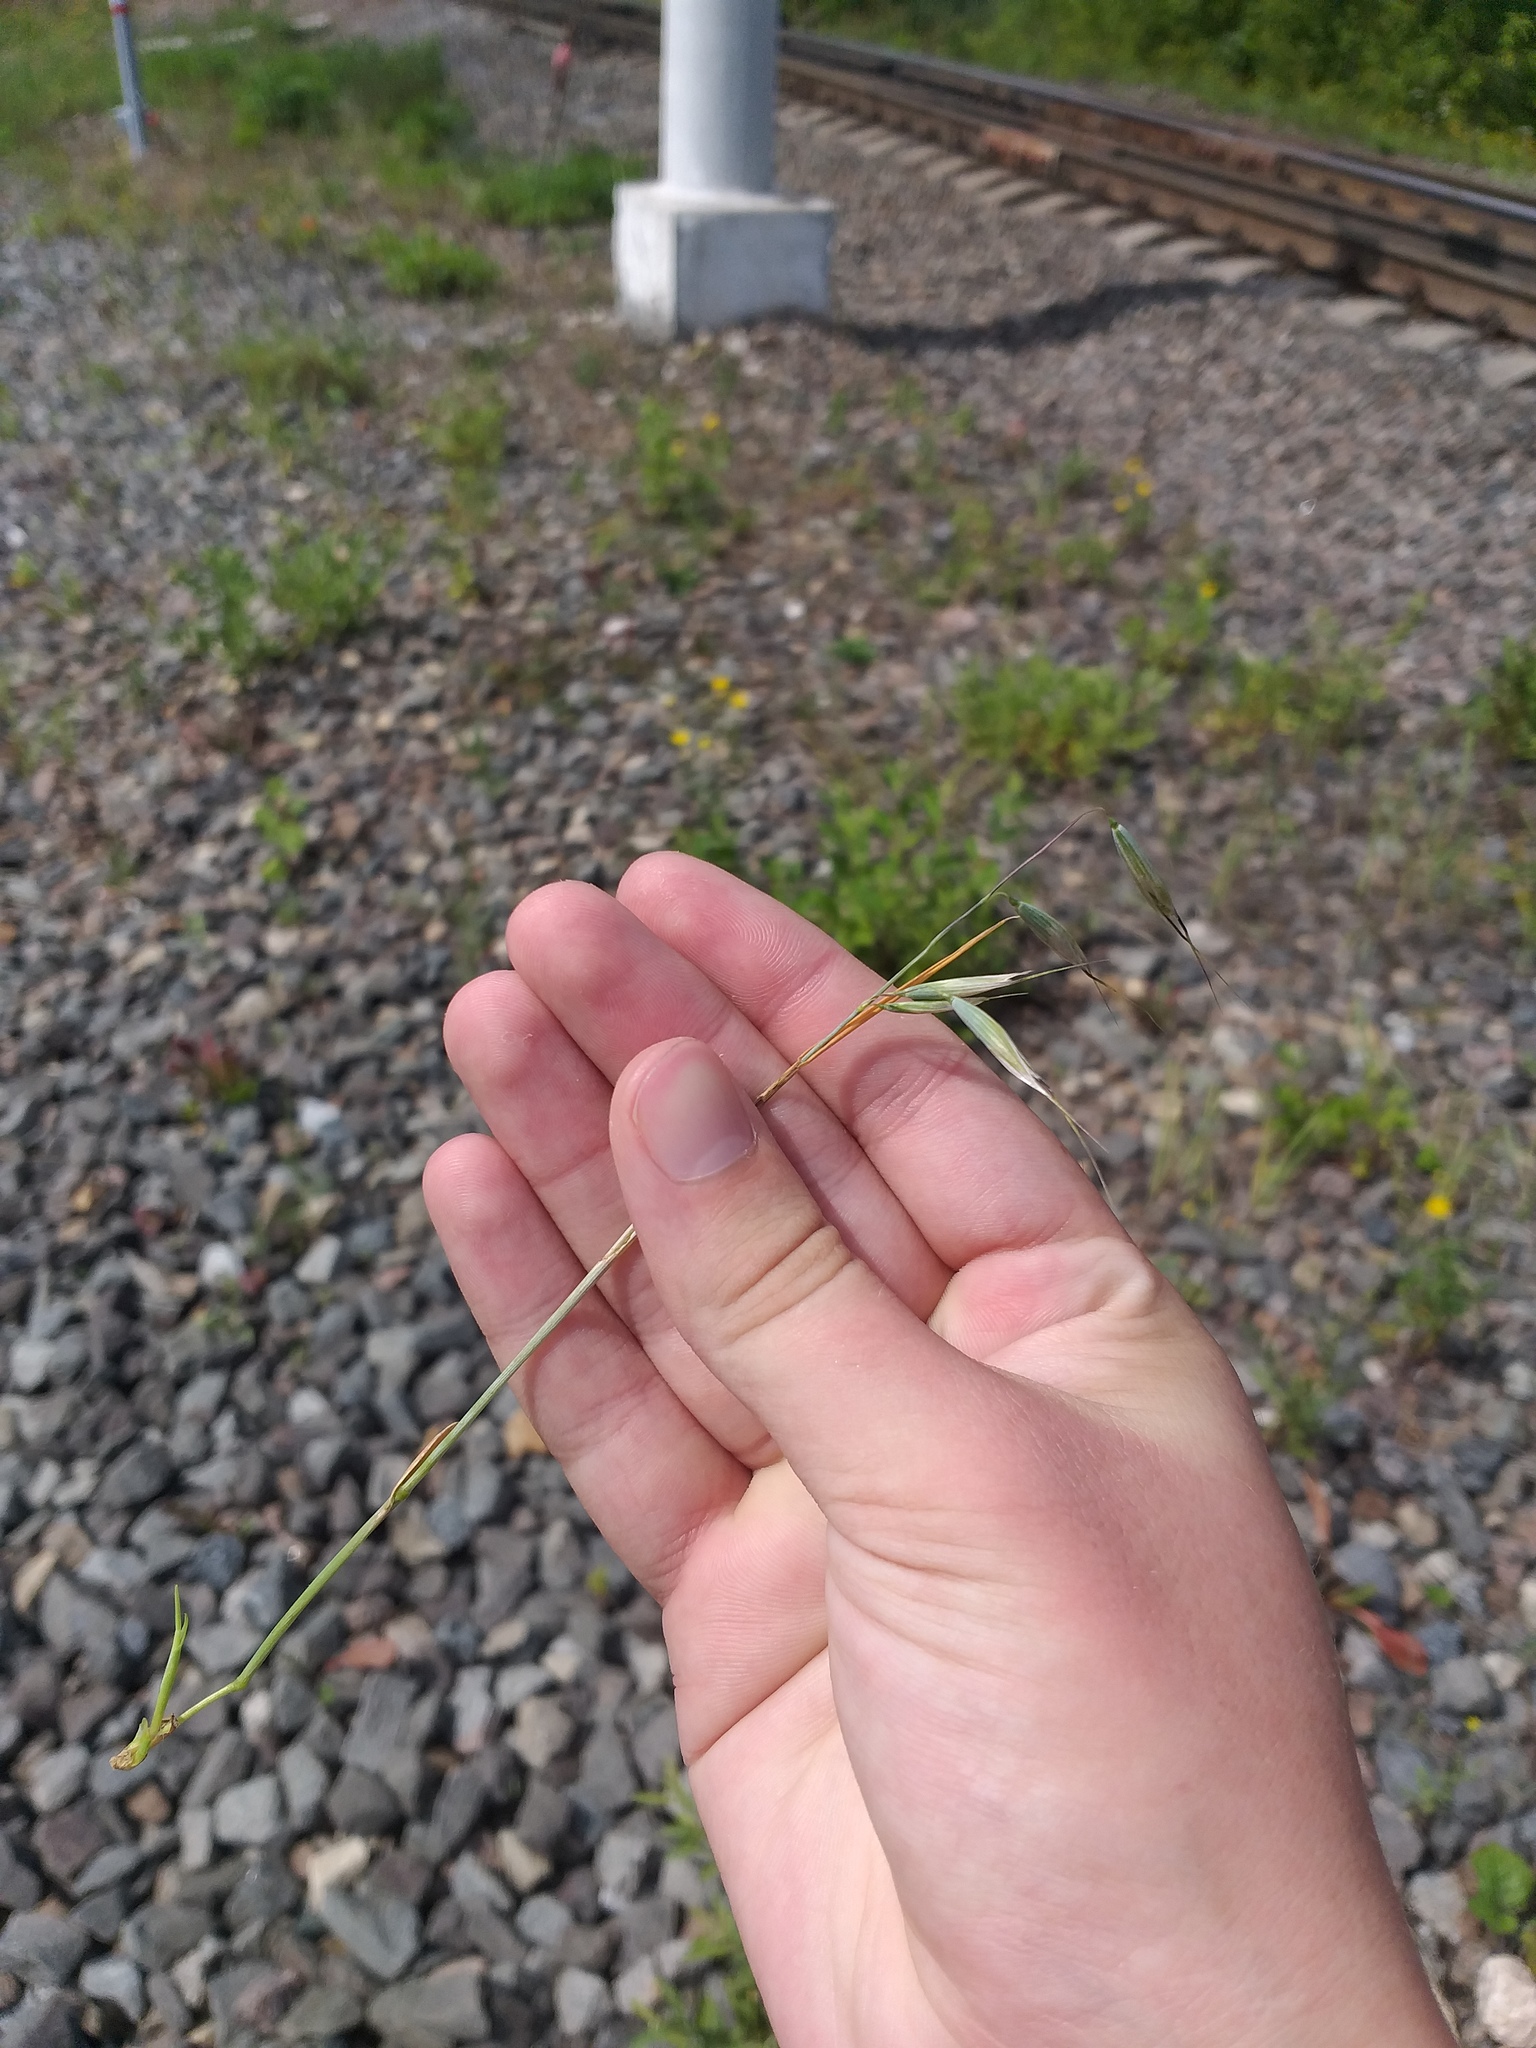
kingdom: Plantae
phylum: Tracheophyta
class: Liliopsida
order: Poales
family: Poaceae
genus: Avena
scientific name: Avena fatua
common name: Wild oat
